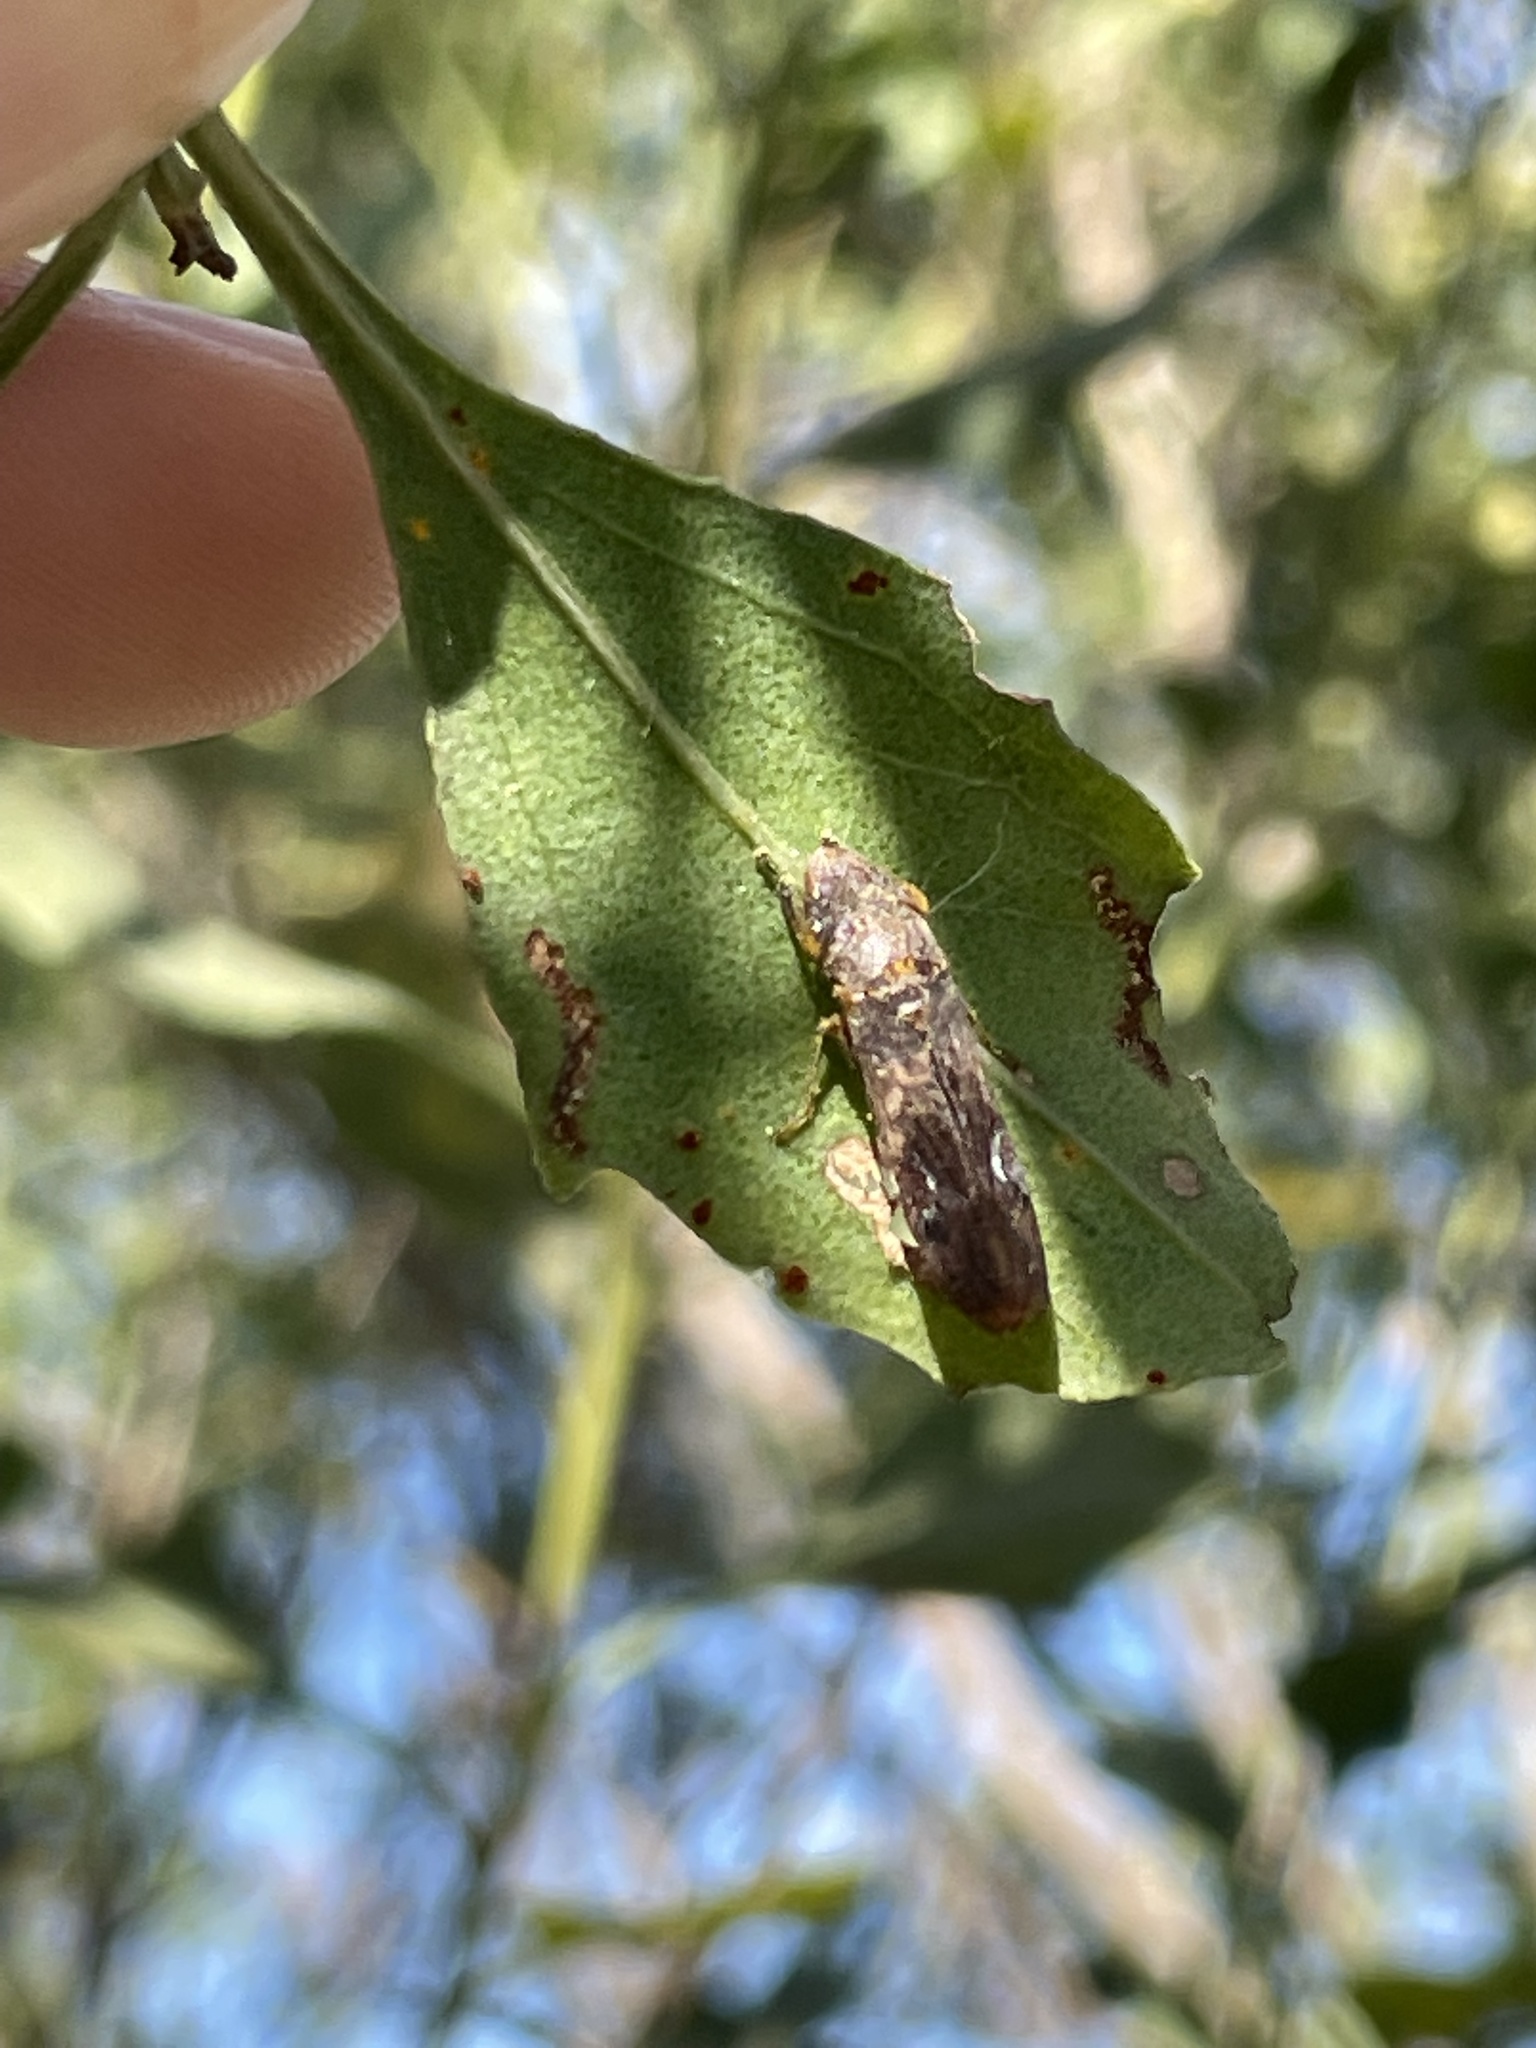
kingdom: Animalia
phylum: Arthropoda
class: Insecta
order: Hemiptera
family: Cicadellidae
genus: Homalodisca
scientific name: Homalodisca vitripennis
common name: Glassy-winged sharpshooter
